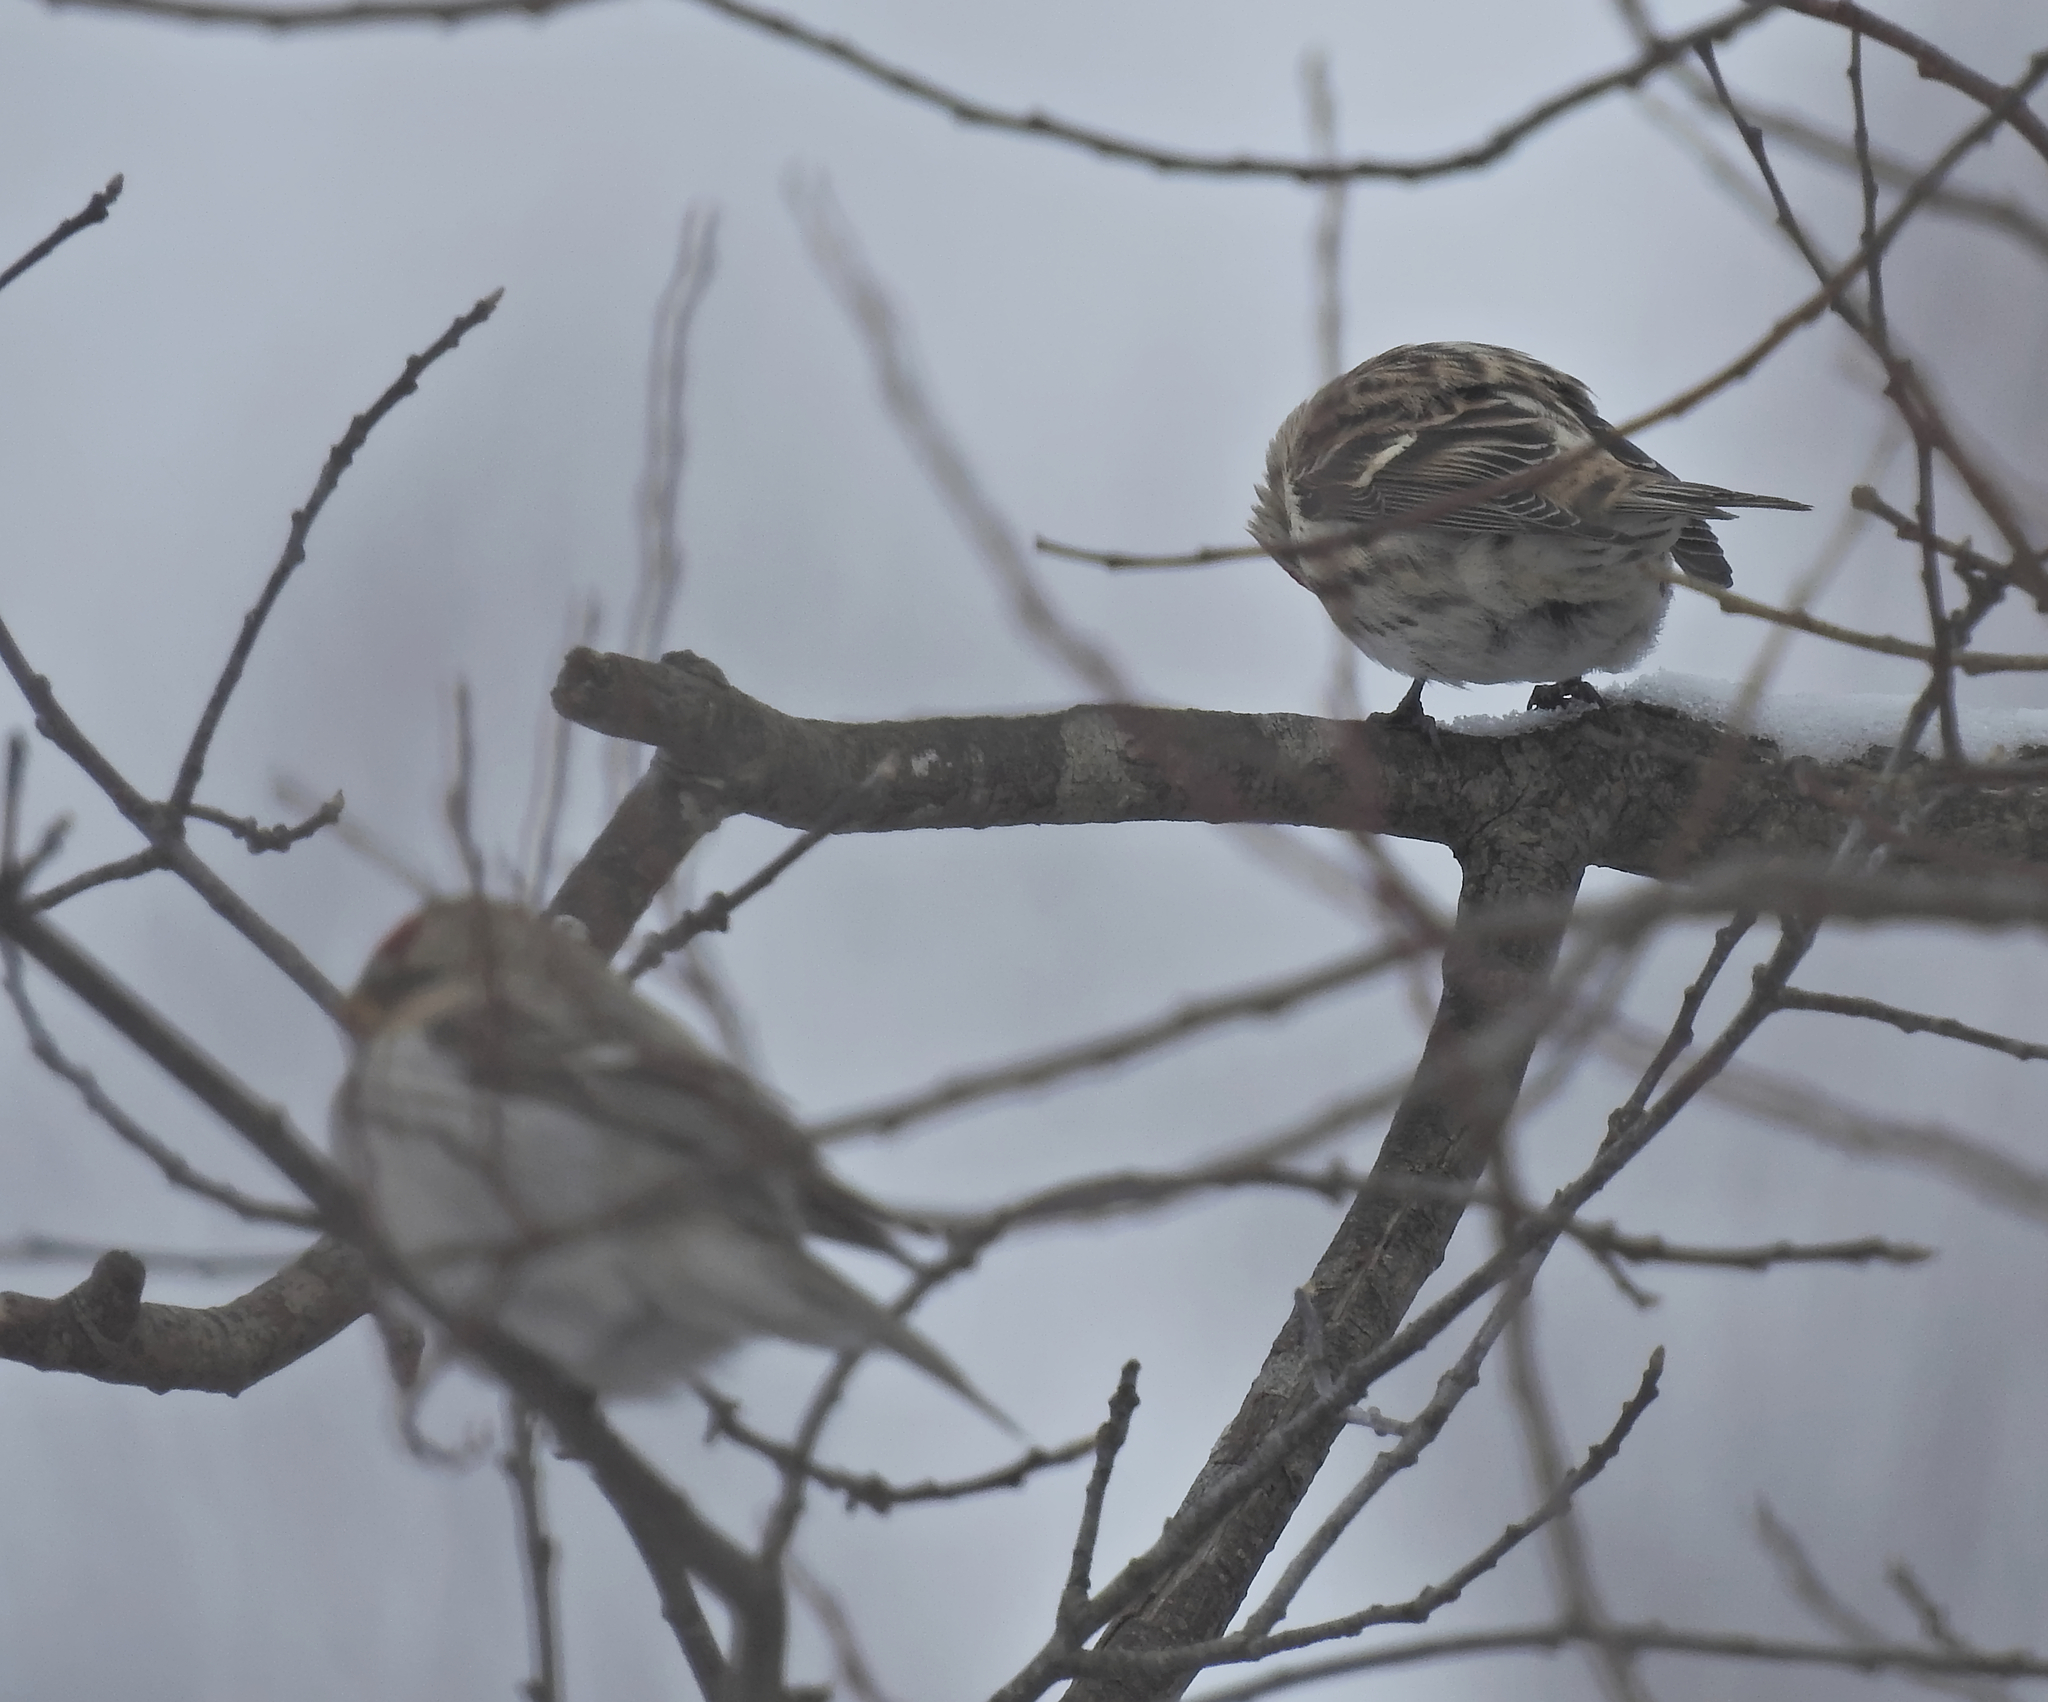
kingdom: Animalia
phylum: Chordata
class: Aves
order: Passeriformes
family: Fringillidae
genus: Acanthis
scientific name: Acanthis flammea
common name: Common redpoll
